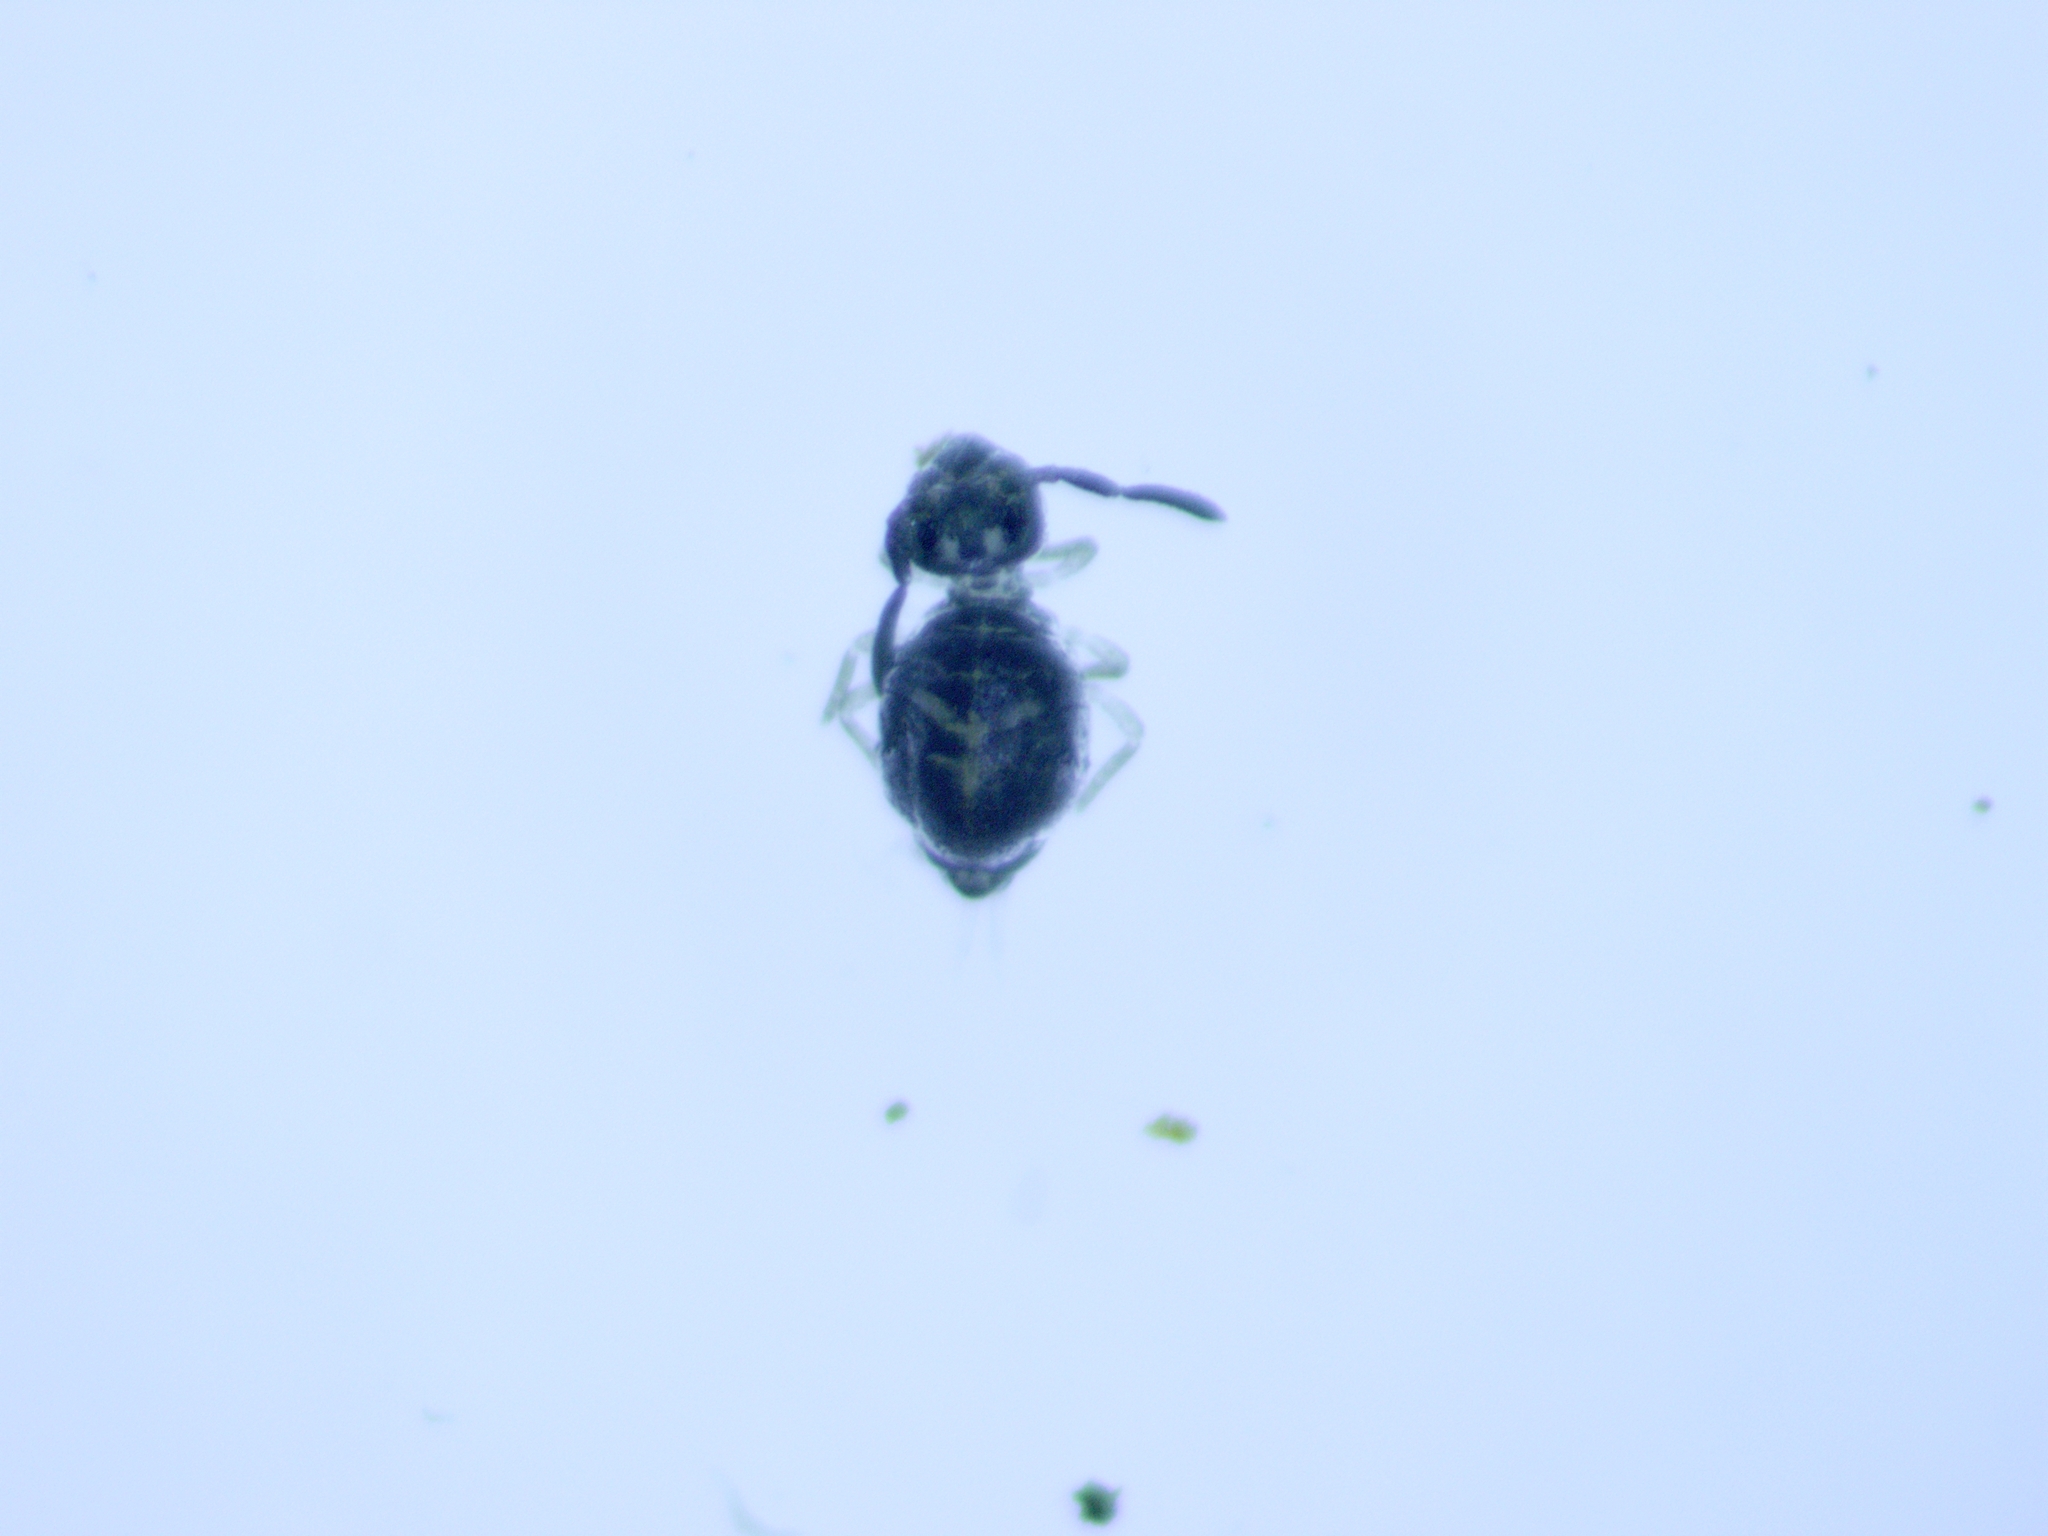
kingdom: Animalia
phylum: Arthropoda
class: Collembola
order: Symphypleona
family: Katiannidae
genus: Sminthurinus
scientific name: Sminthurinus quadrimaculatus
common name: Globular springtail
